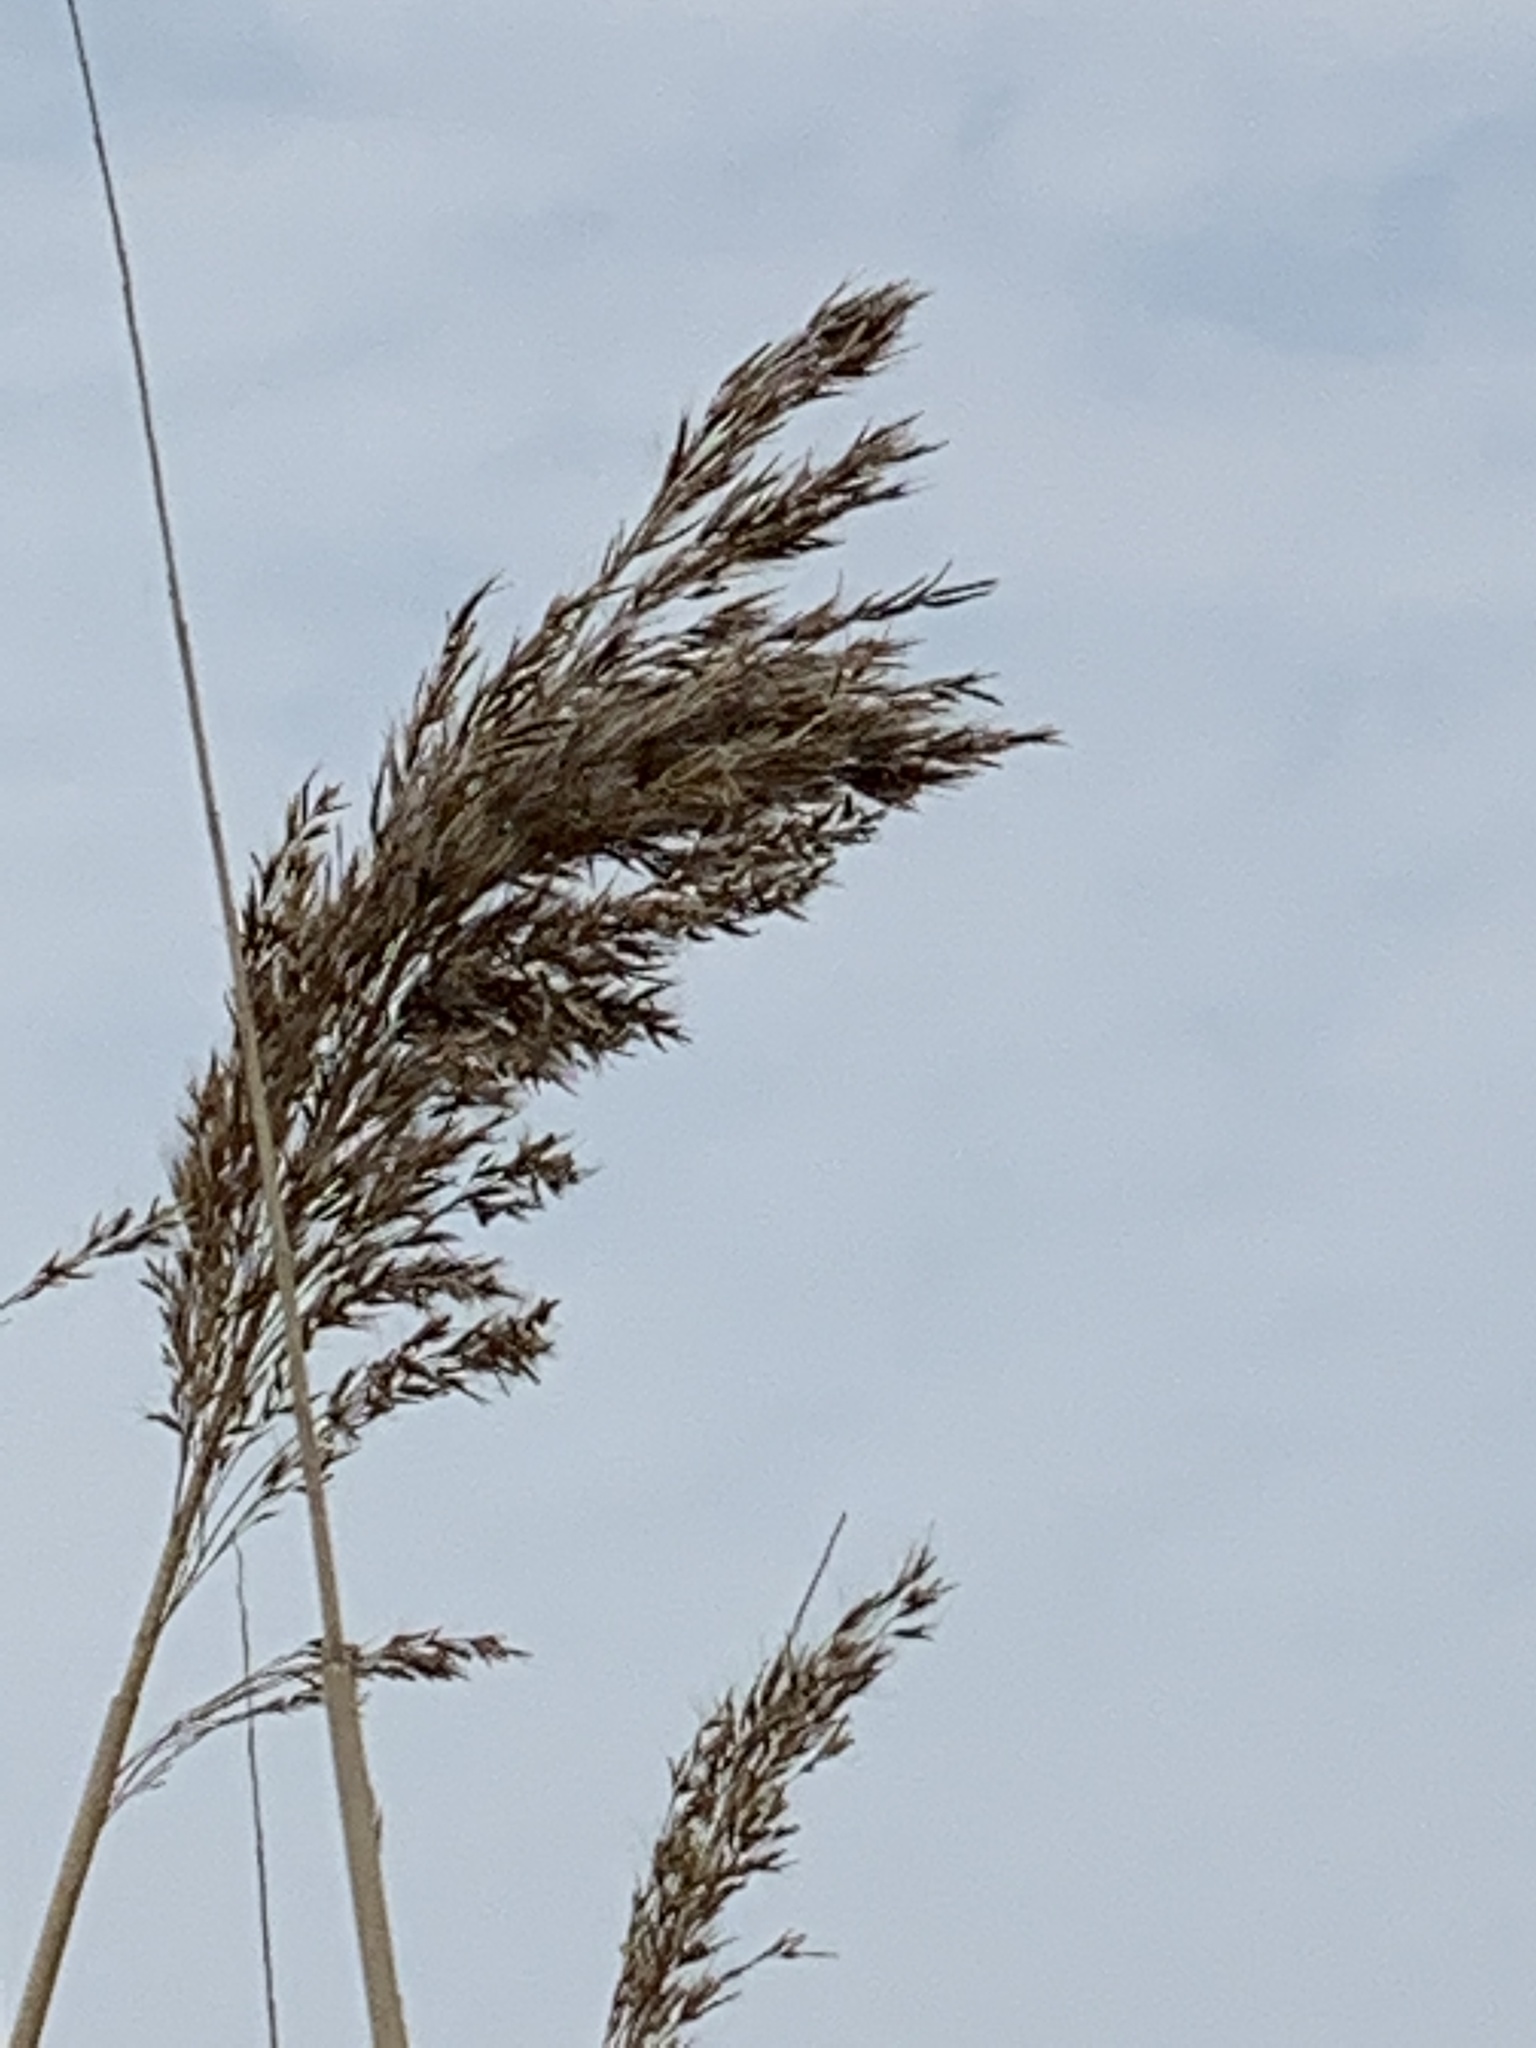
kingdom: Plantae
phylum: Tracheophyta
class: Liliopsida
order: Poales
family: Poaceae
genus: Phragmites
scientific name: Phragmites australis
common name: Common reed
